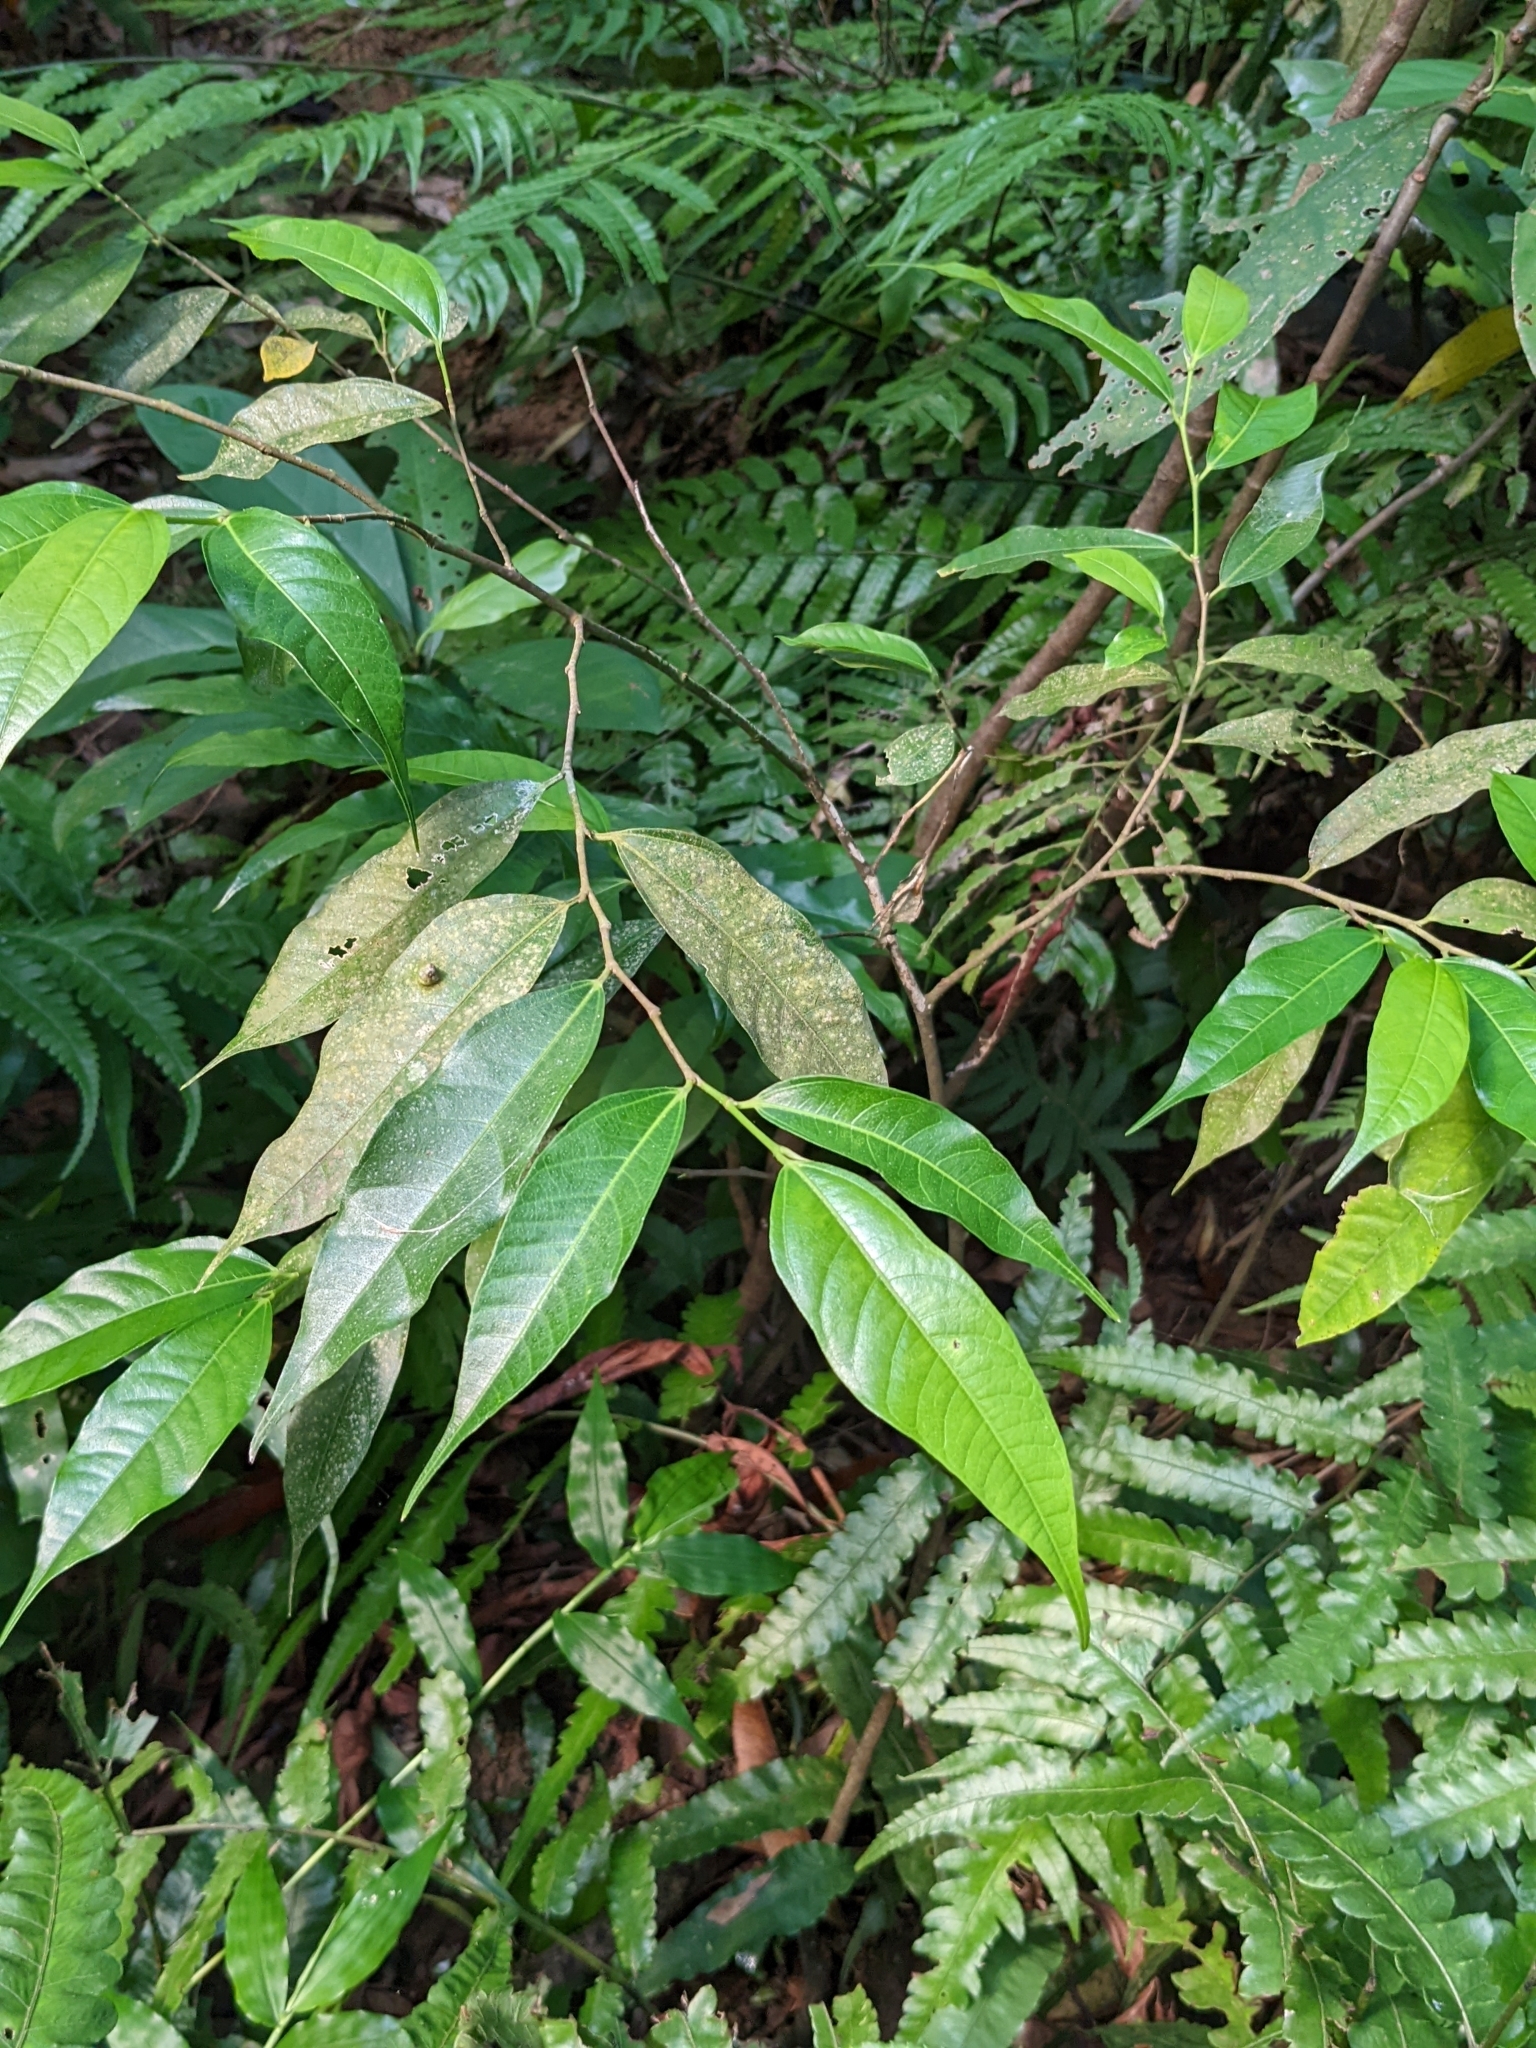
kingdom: Plantae
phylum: Tracheophyta
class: Magnoliopsida
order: Rosales
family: Moraceae
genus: Ficus
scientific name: Ficus ampelos
